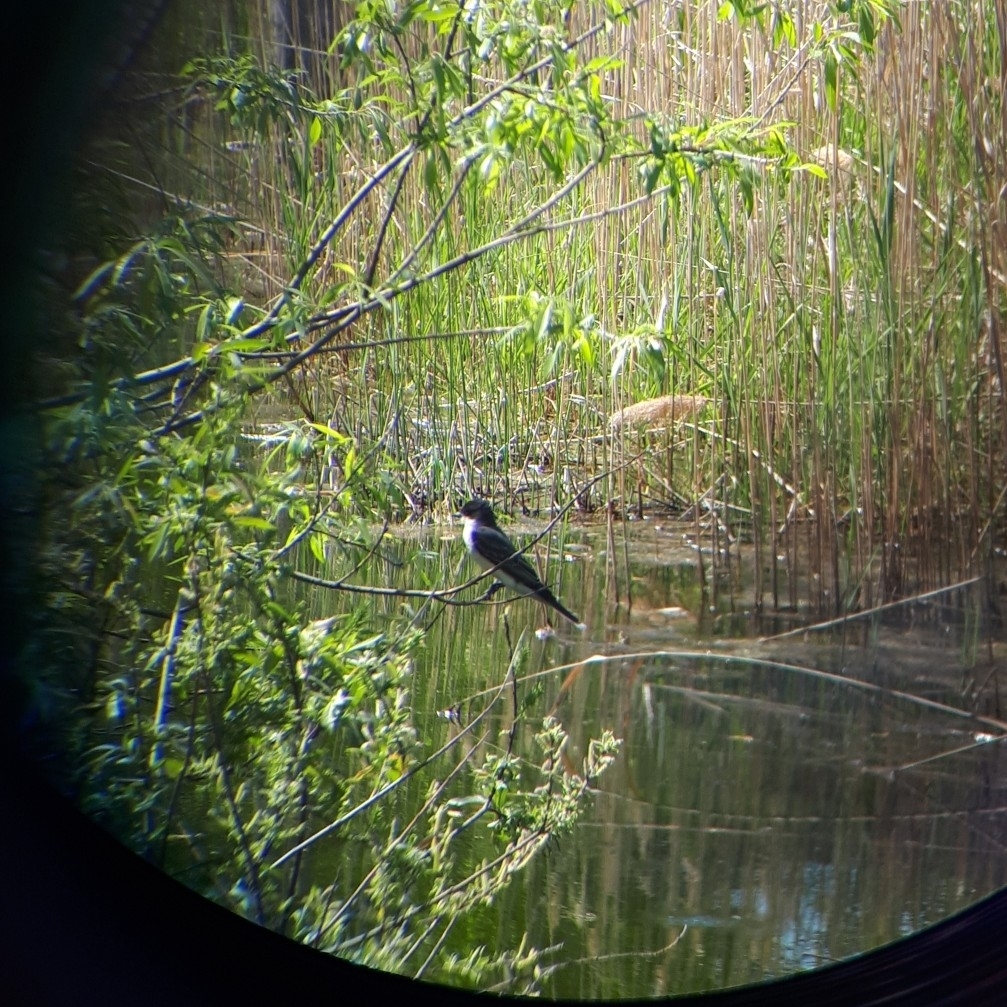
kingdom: Animalia
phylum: Chordata
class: Aves
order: Passeriformes
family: Tyrannidae
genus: Tyrannus
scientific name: Tyrannus tyrannus
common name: Eastern kingbird
